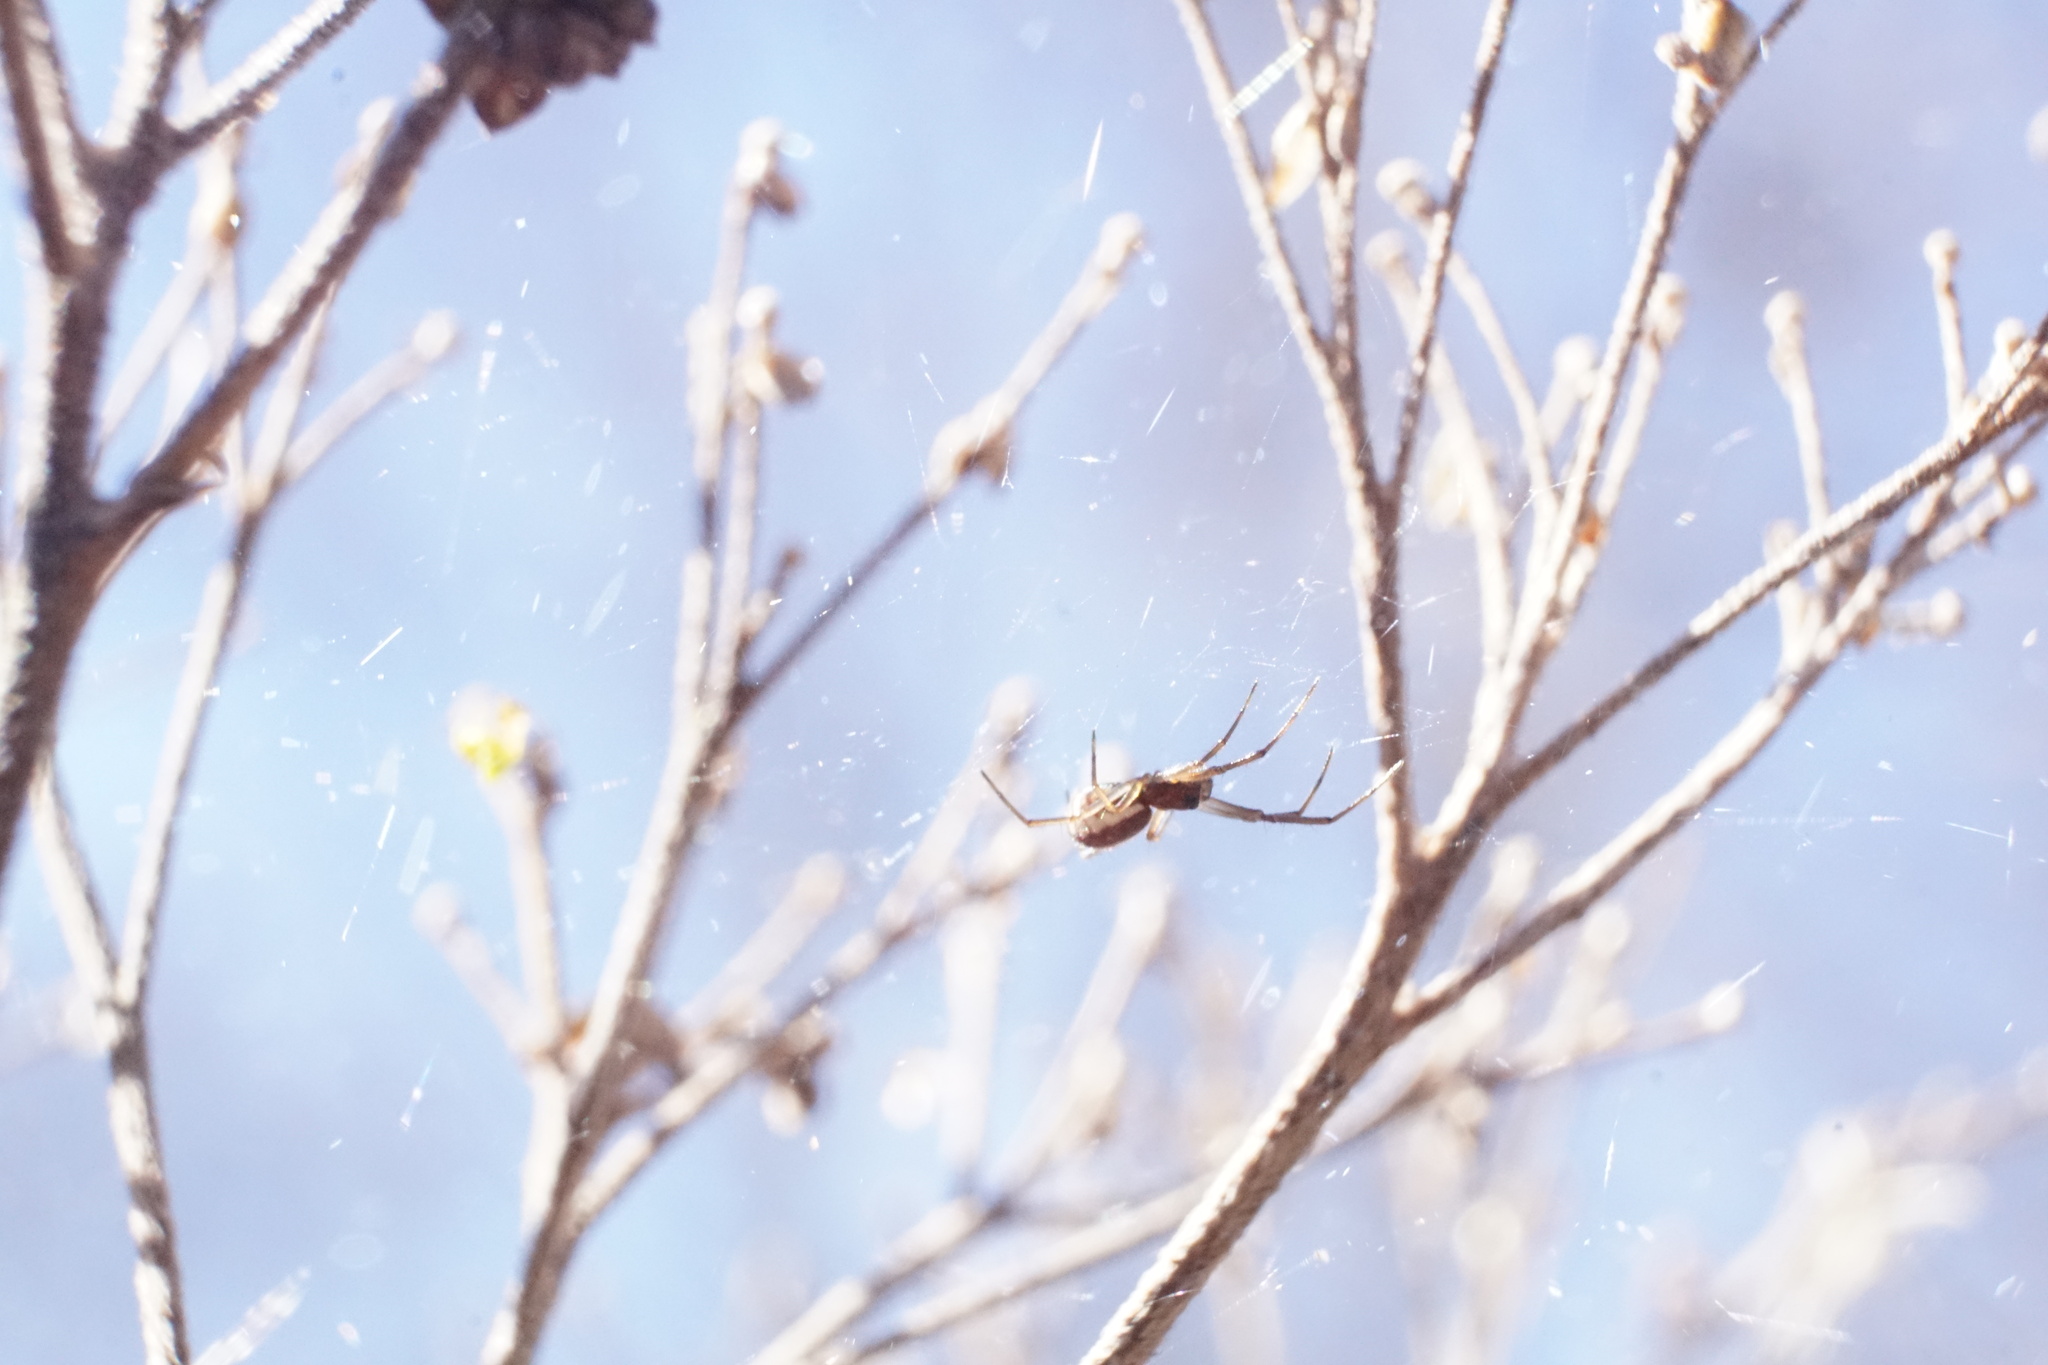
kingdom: Animalia
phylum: Arthropoda
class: Arachnida
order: Araneae
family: Linyphiidae
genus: Frontinella
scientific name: Frontinella pyramitela
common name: Bowl-and-doily spider
